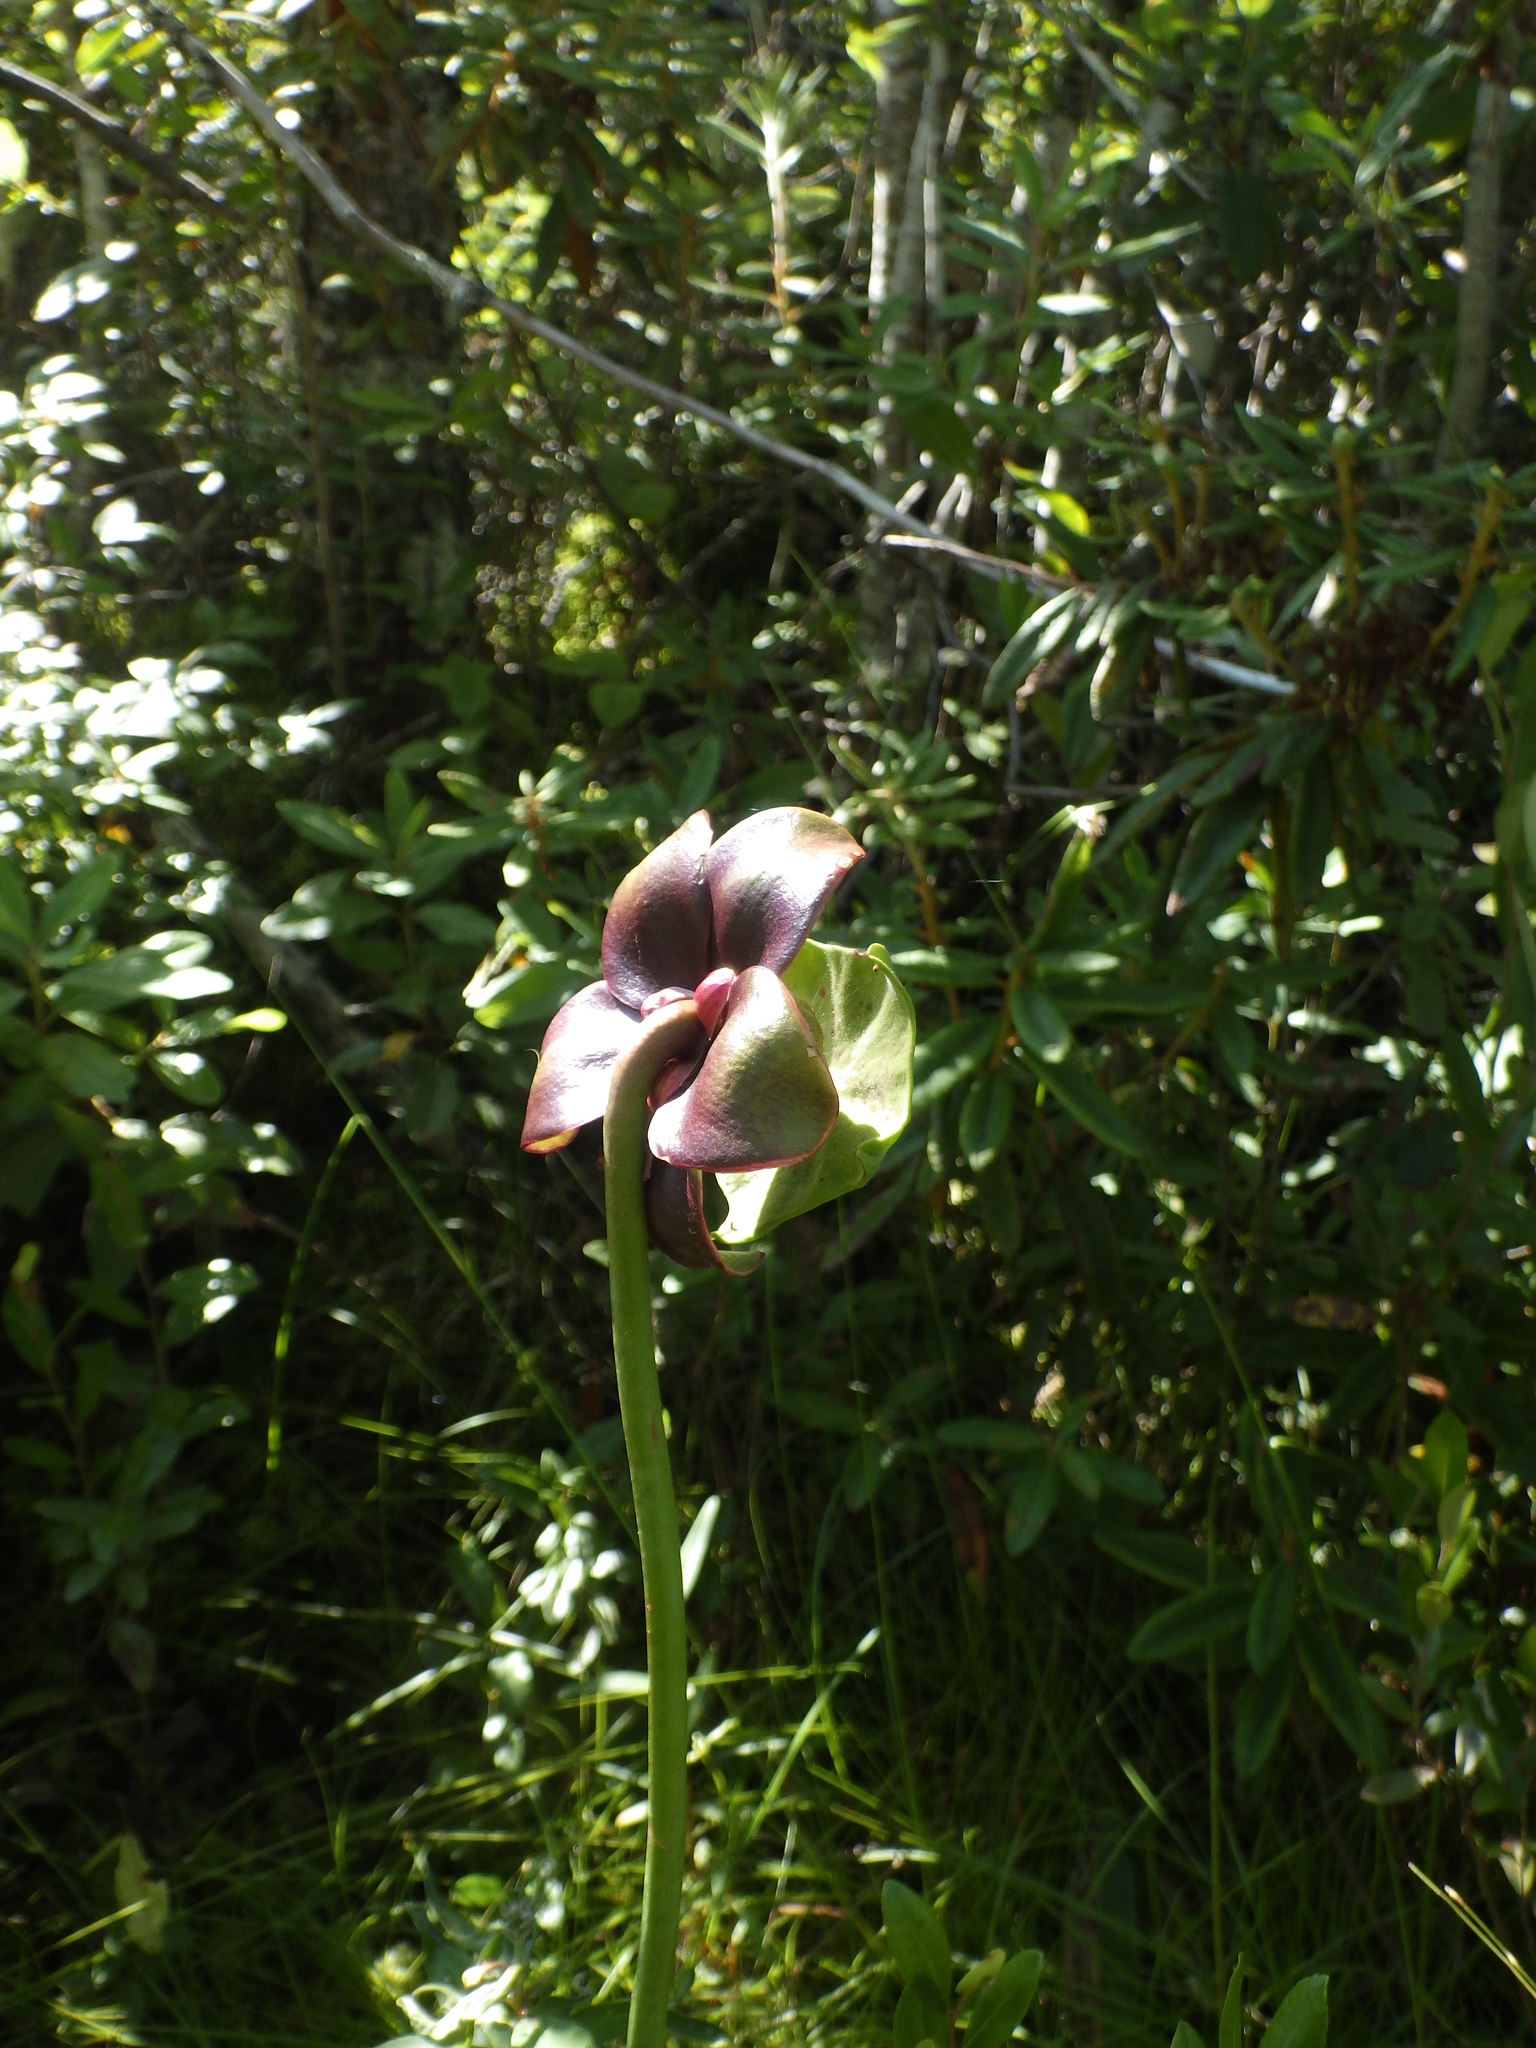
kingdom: Plantae
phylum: Tracheophyta
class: Magnoliopsida
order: Ericales
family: Sarraceniaceae
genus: Sarracenia
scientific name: Sarracenia purpurea
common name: Pitcherplant
